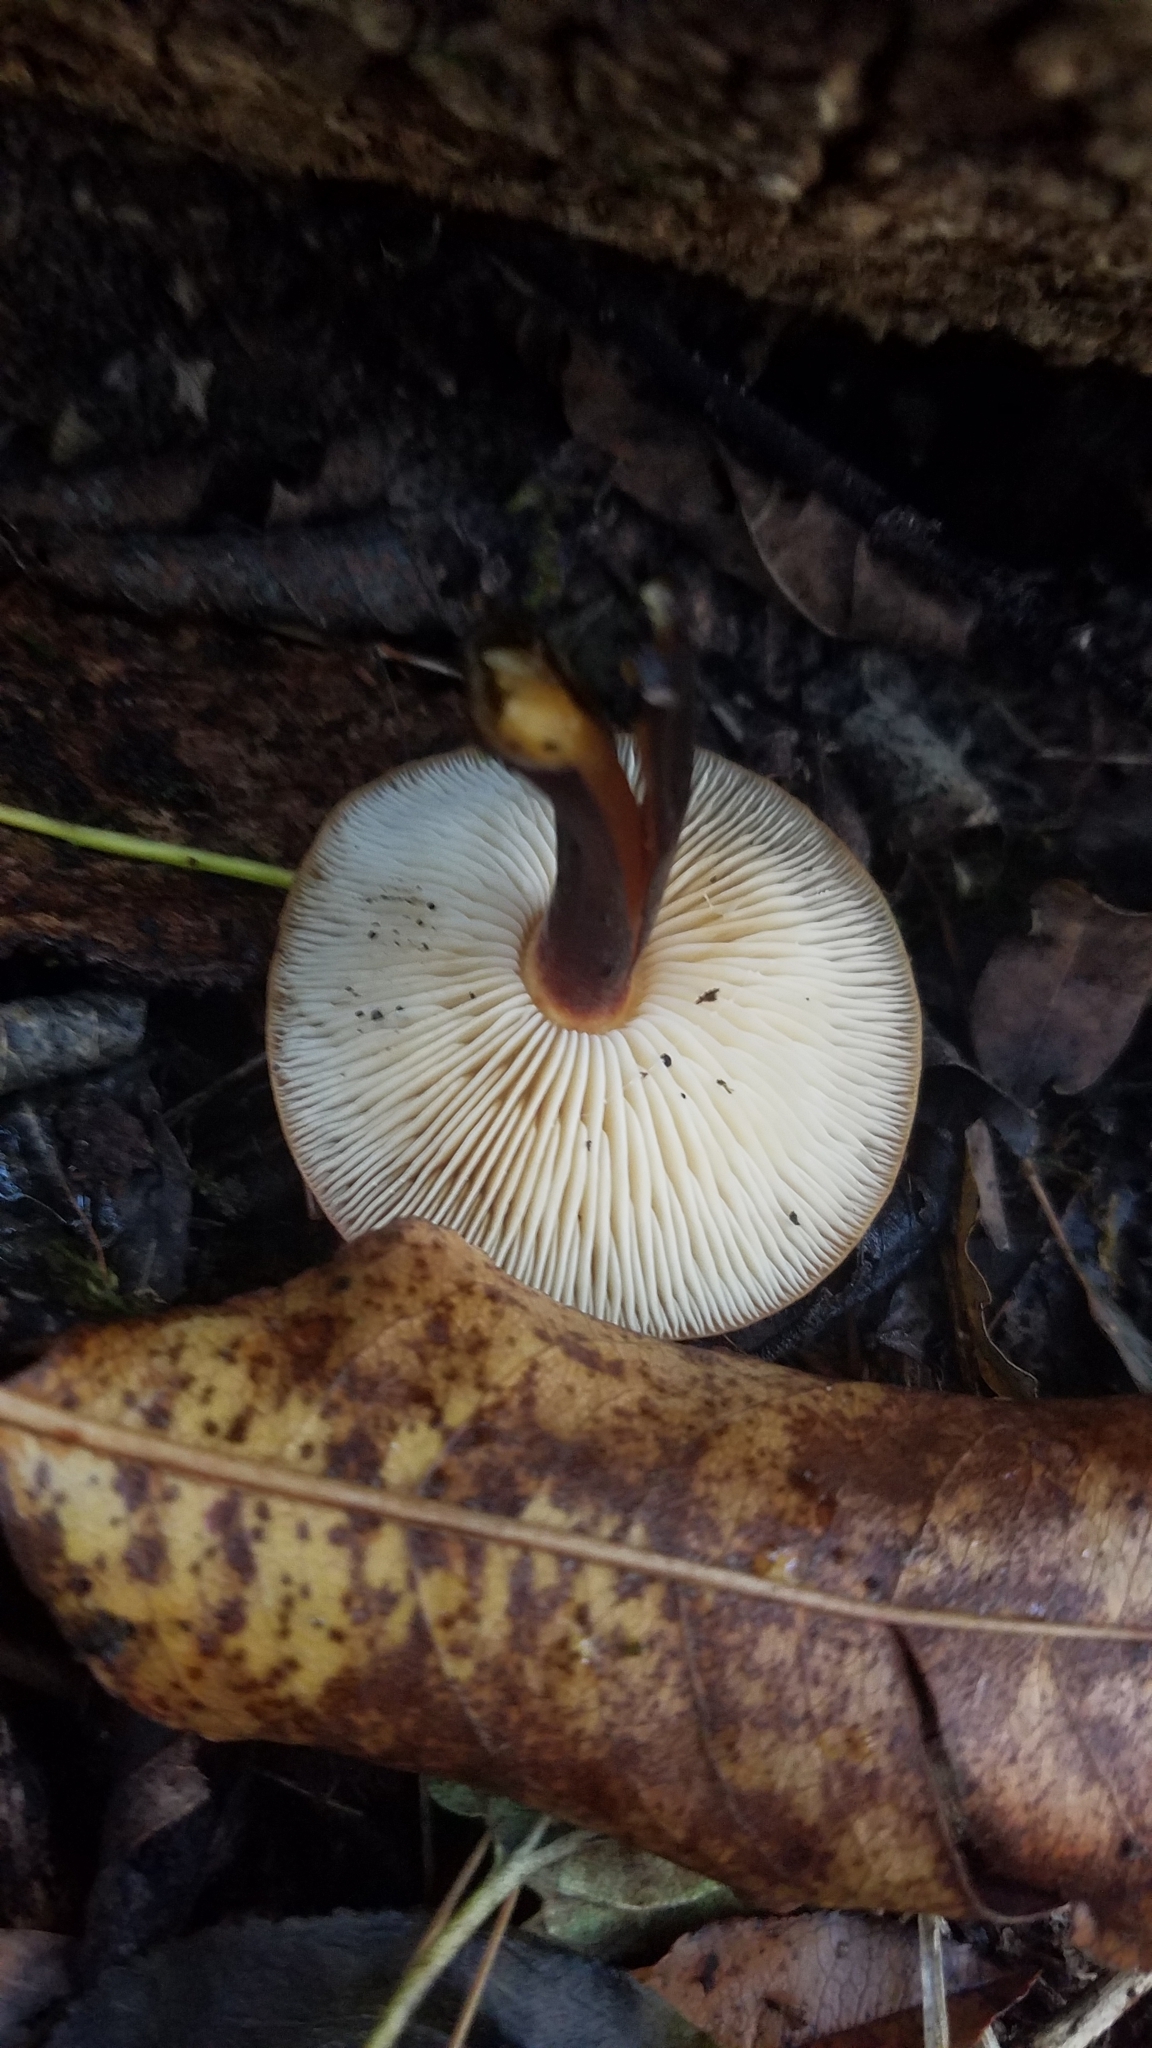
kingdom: Fungi
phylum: Basidiomycota
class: Agaricomycetes
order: Agaricales
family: Physalacriaceae
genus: Flammulina
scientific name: Flammulina velutipes
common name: Velvet shank
